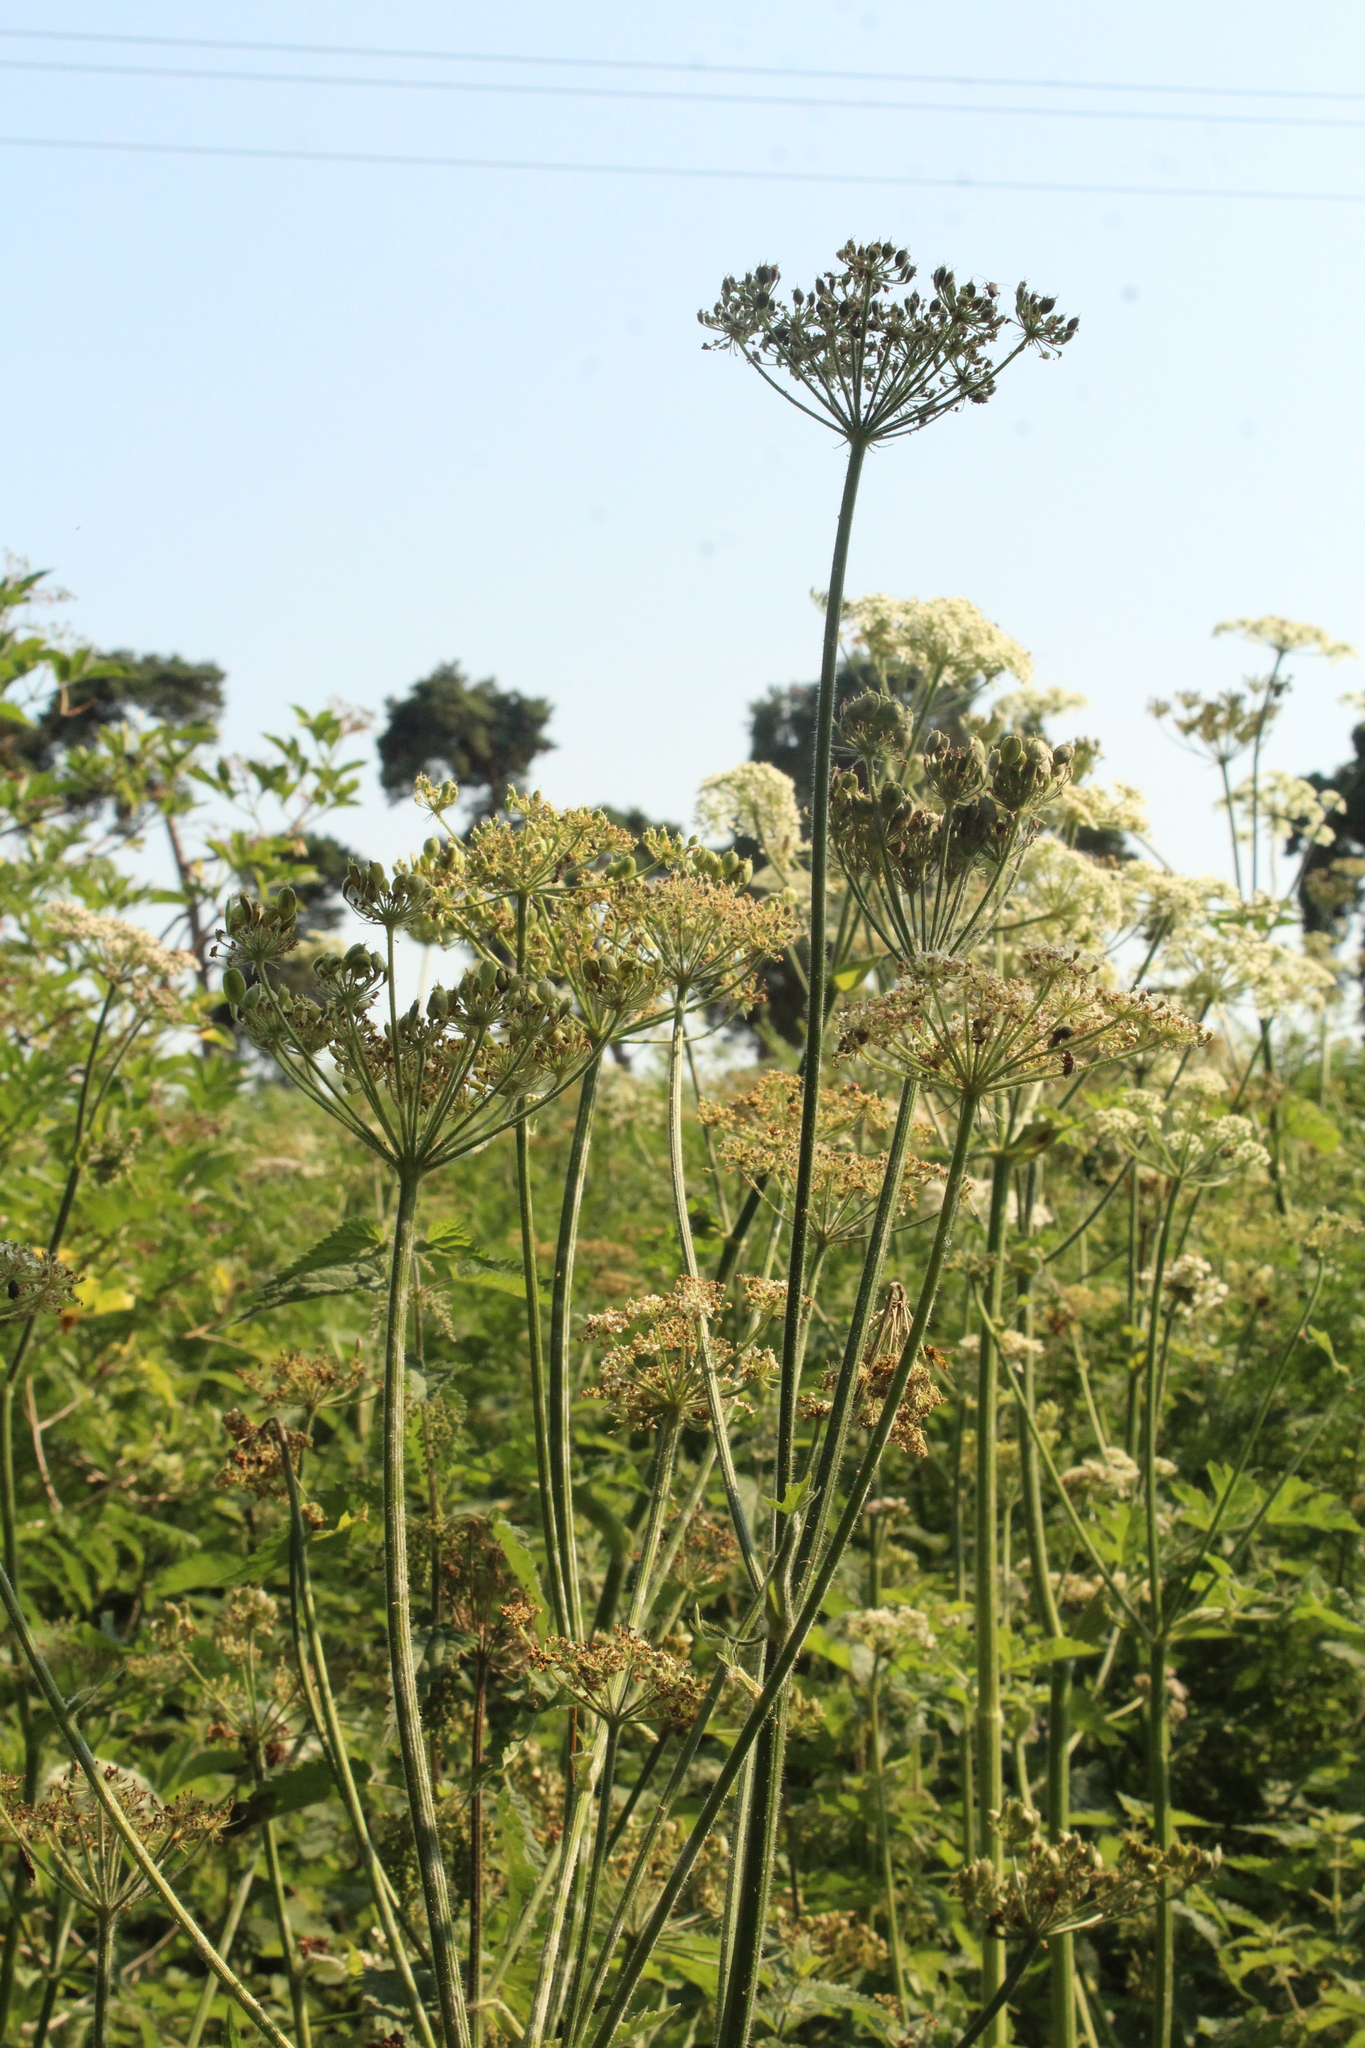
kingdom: Plantae
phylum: Tracheophyta
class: Magnoliopsida
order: Apiales
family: Apiaceae
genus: Heracleum
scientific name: Heracleum sphondylium
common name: Hogweed
